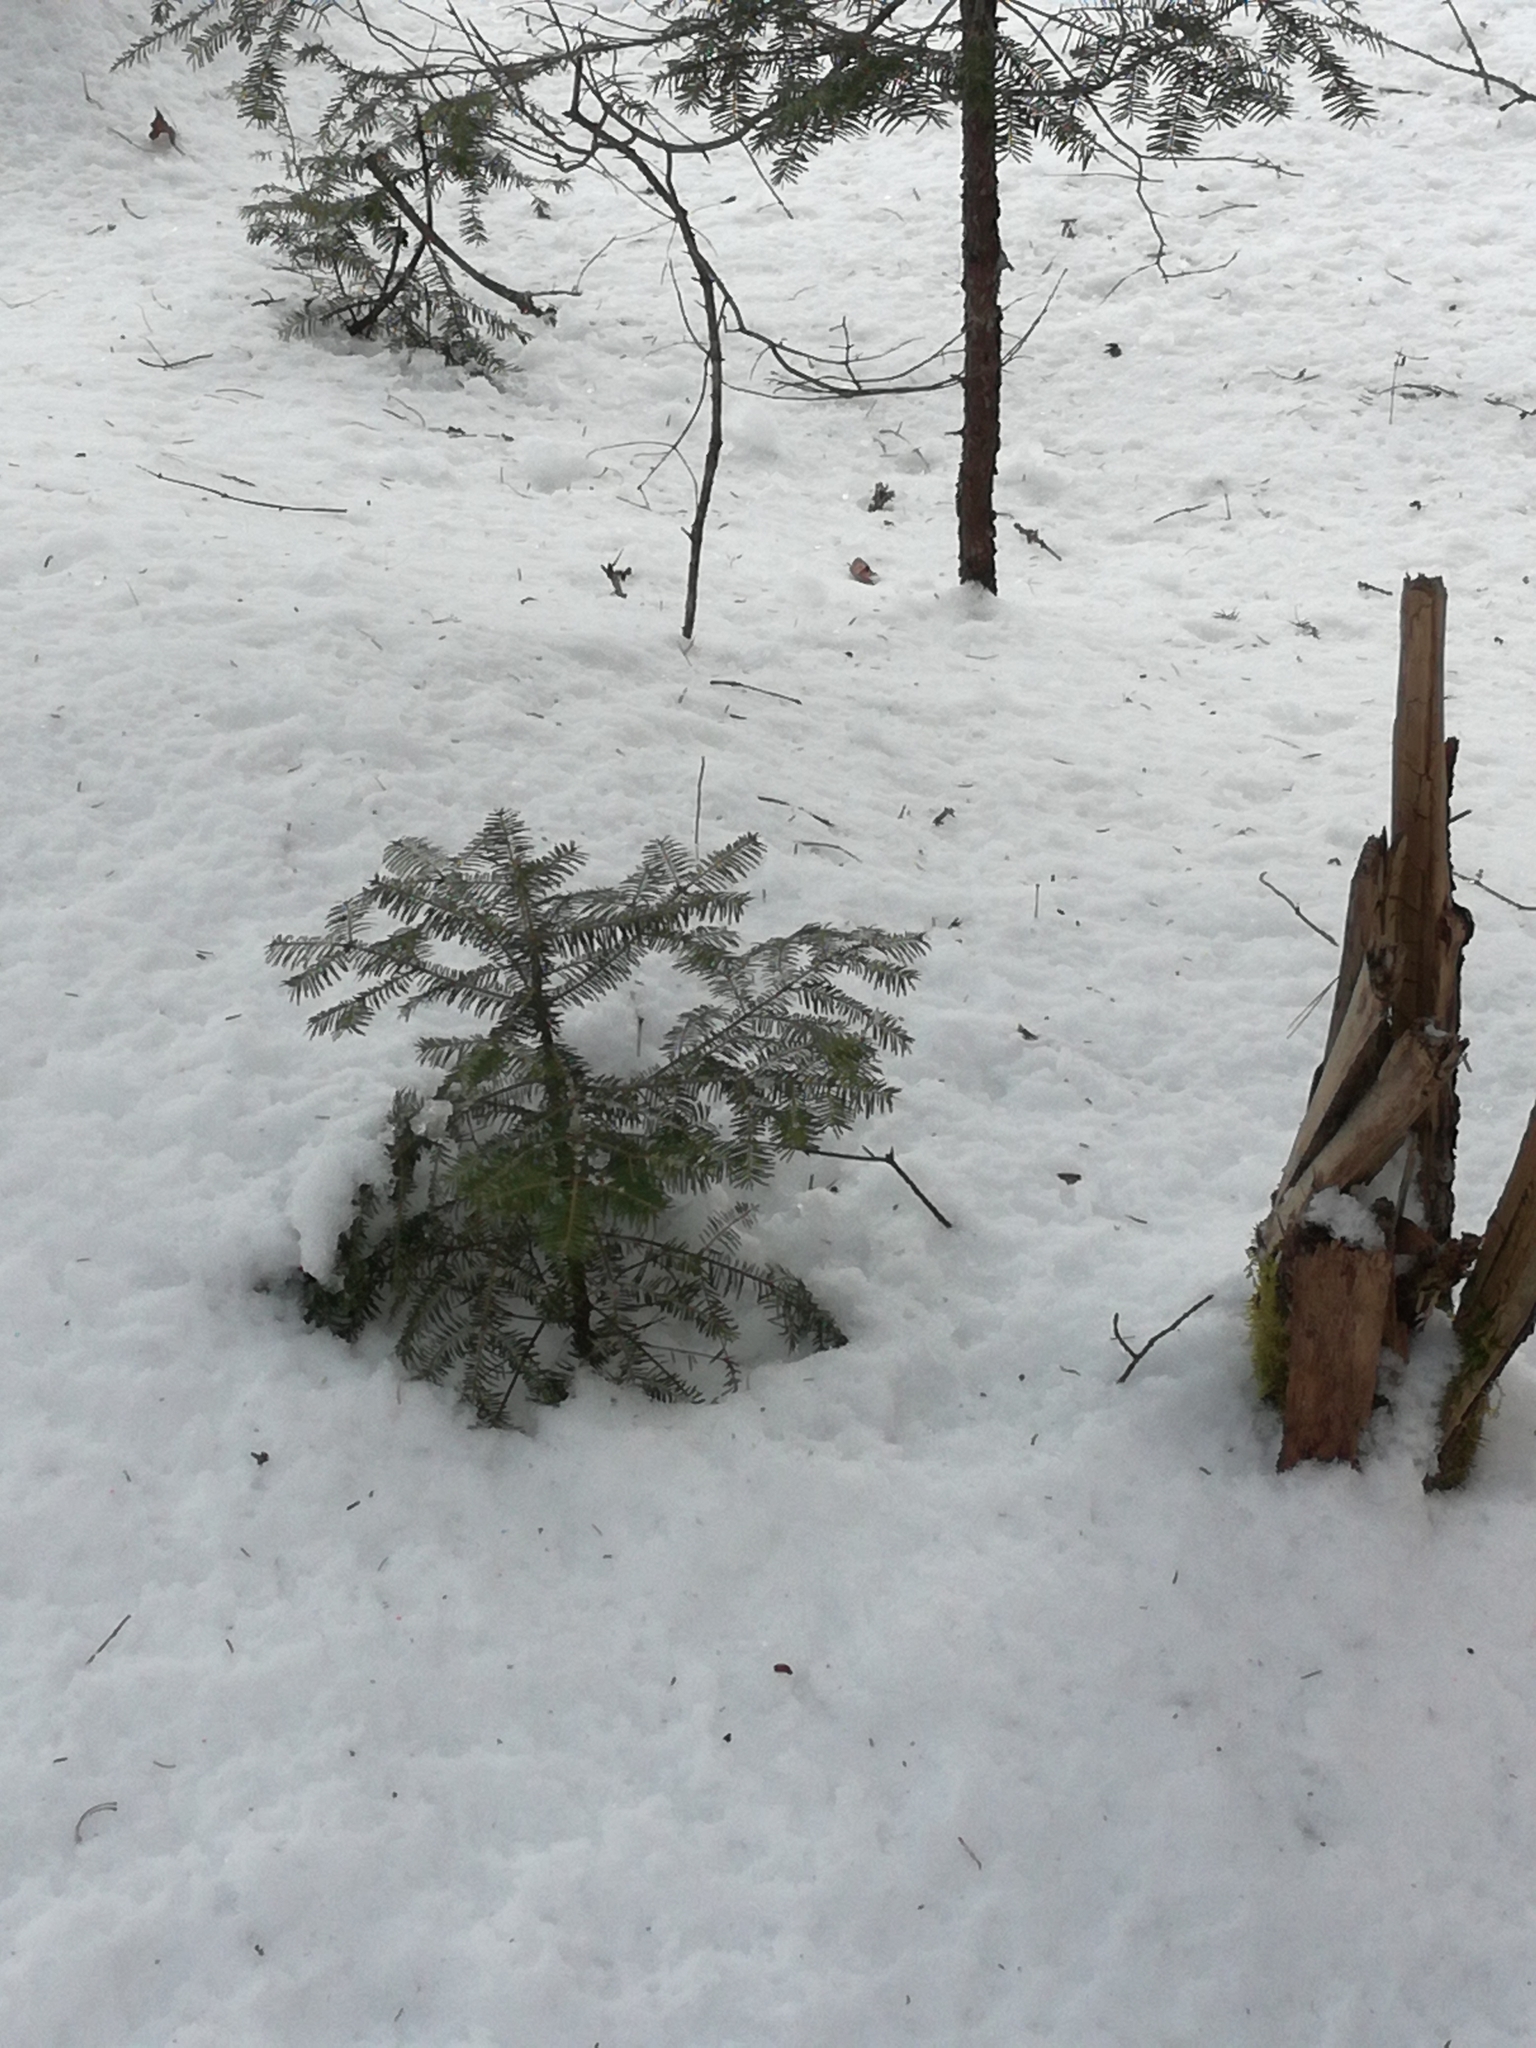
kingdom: Plantae
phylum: Tracheophyta
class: Pinopsida
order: Pinales
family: Pinaceae
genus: Abies
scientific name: Abies balsamea
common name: Balsam fir
